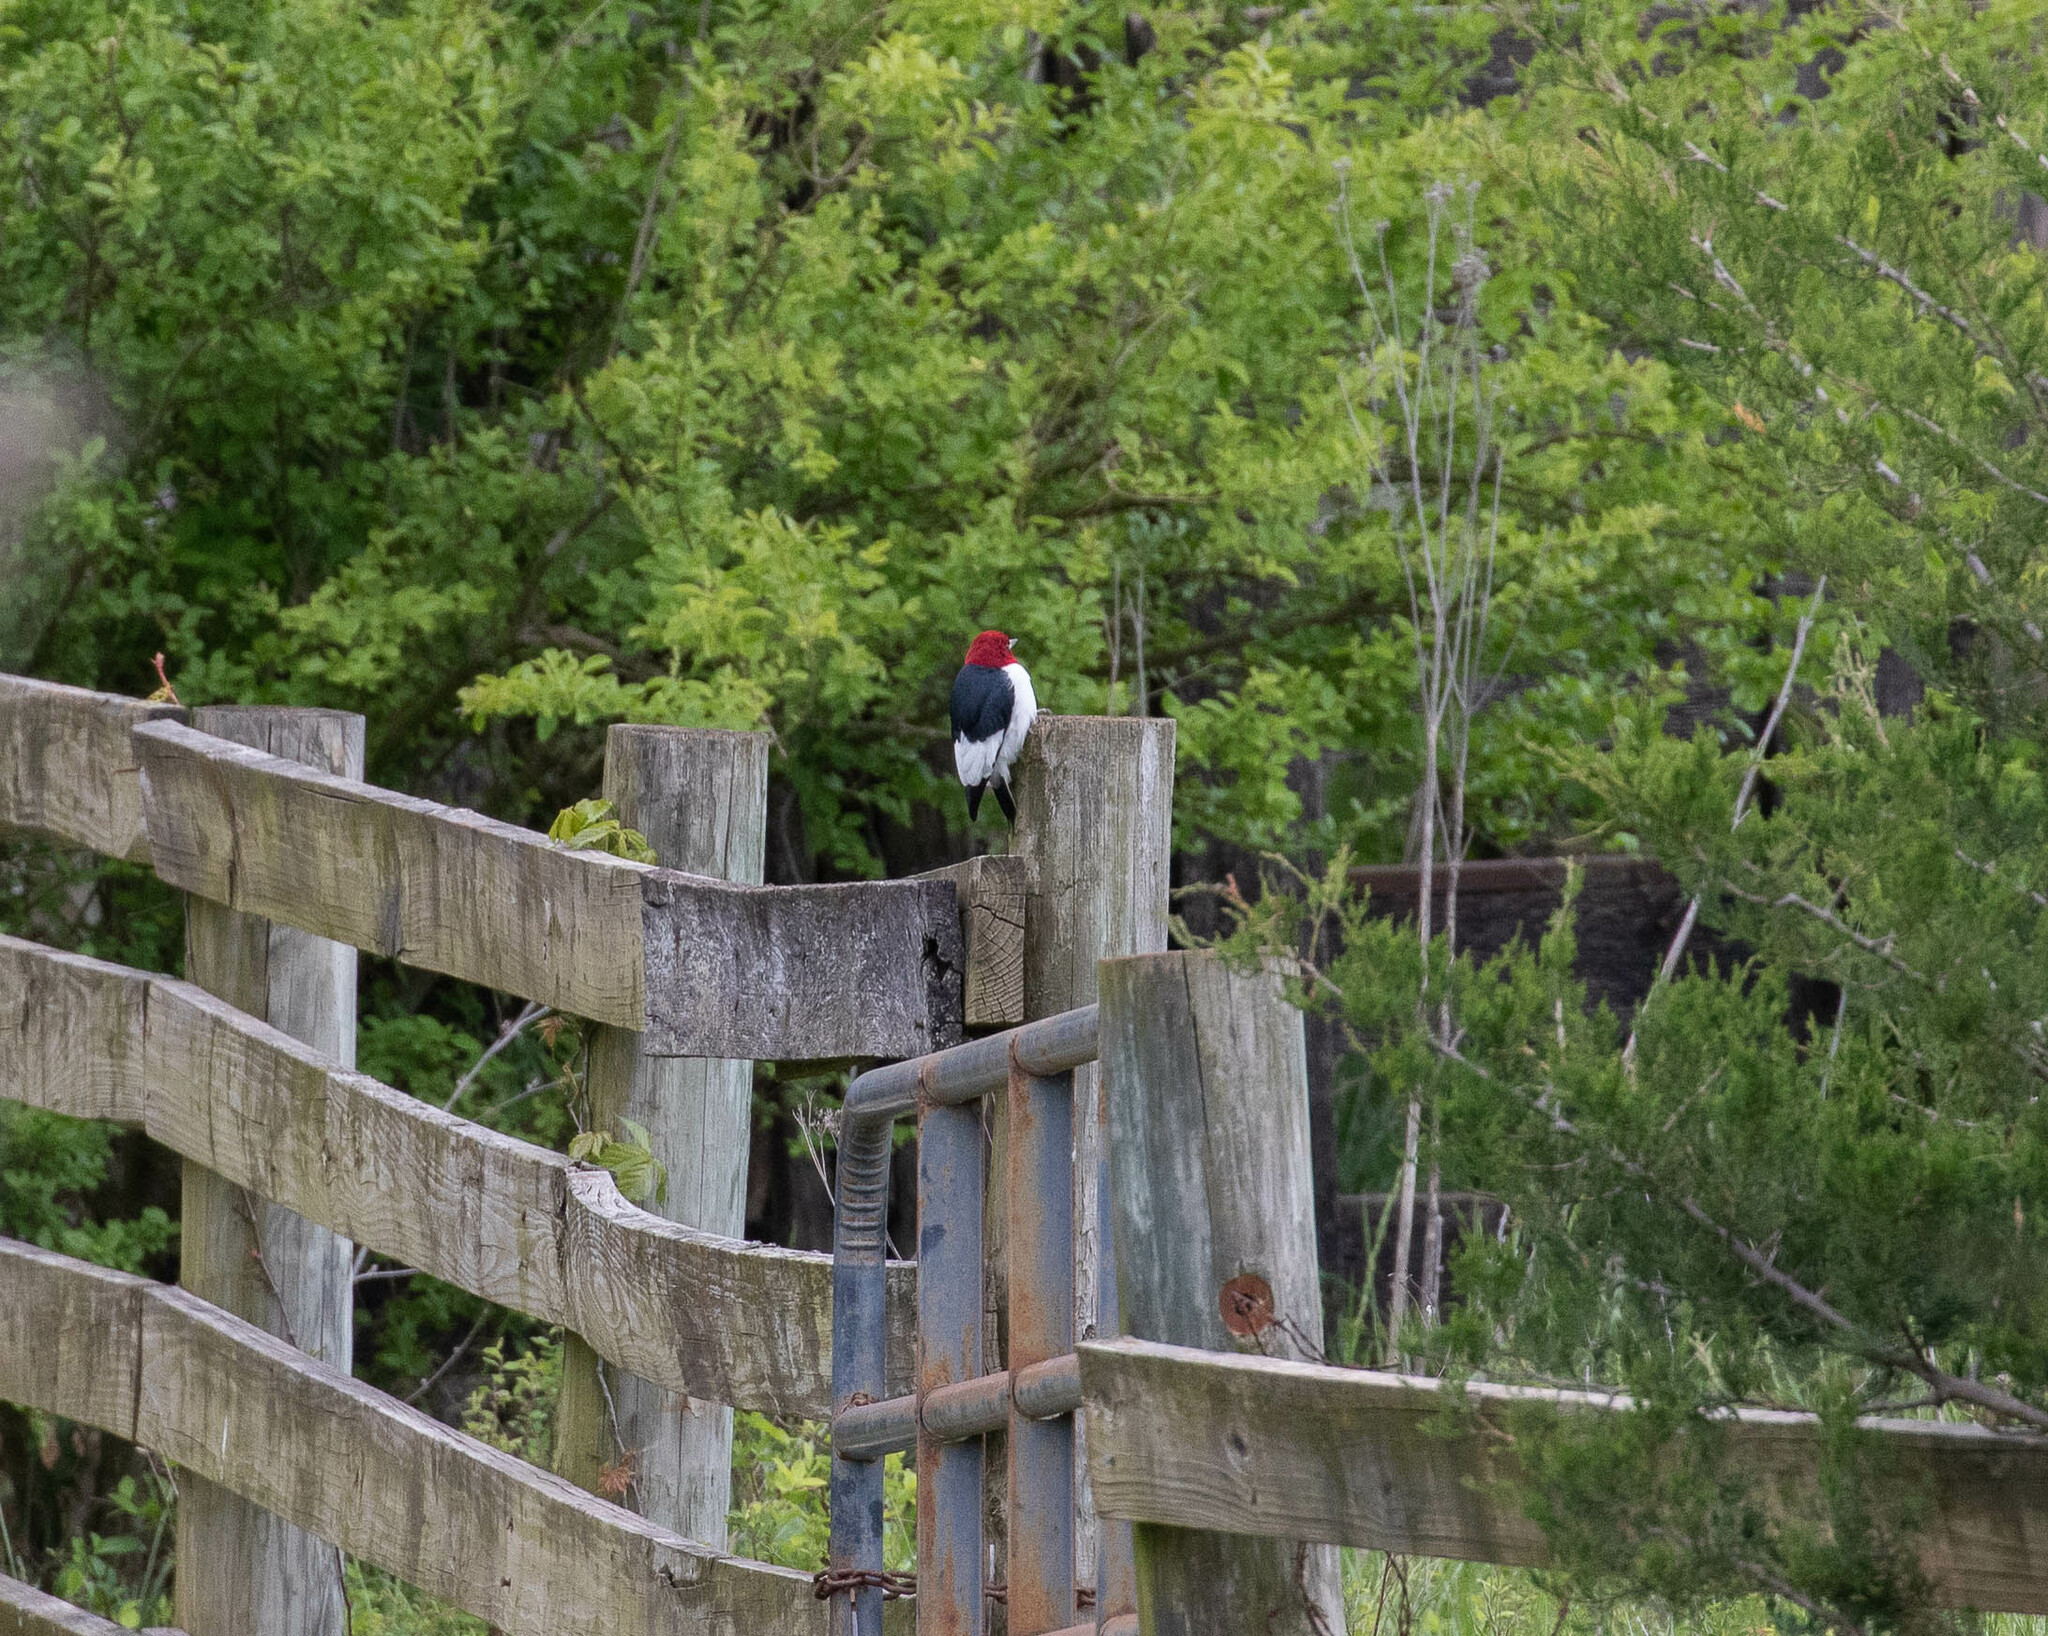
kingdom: Animalia
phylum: Chordata
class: Aves
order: Piciformes
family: Picidae
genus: Melanerpes
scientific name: Melanerpes erythrocephalus
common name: Red-headed woodpecker
